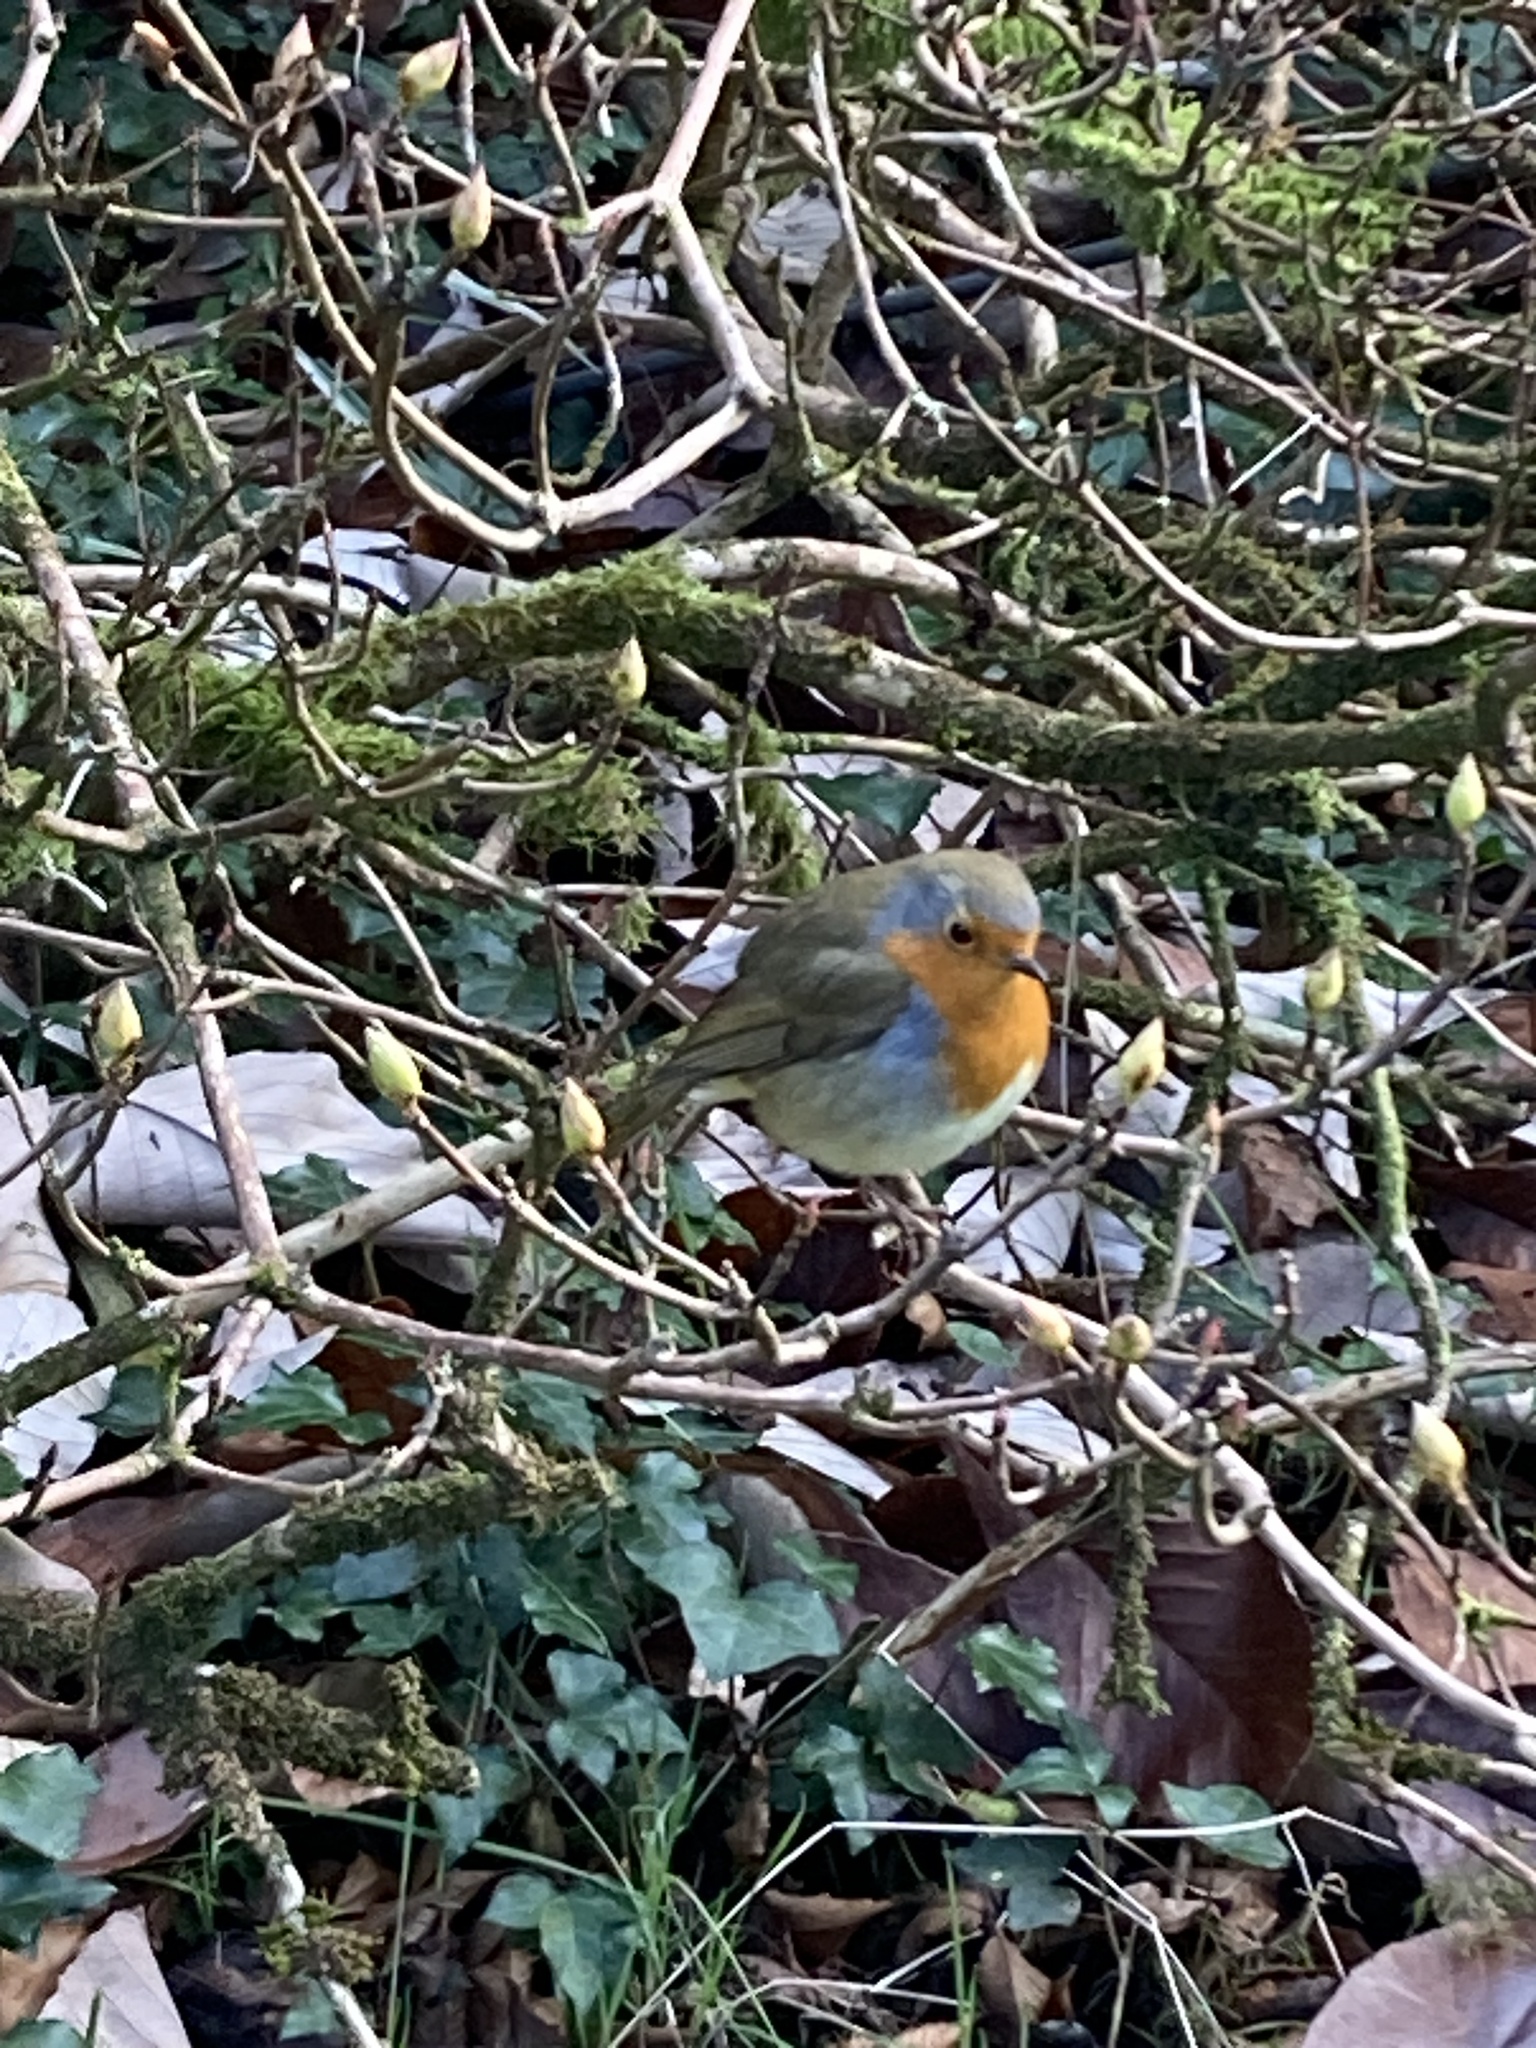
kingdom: Animalia
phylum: Chordata
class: Aves
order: Passeriformes
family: Muscicapidae
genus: Erithacus
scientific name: Erithacus rubecula
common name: European robin
